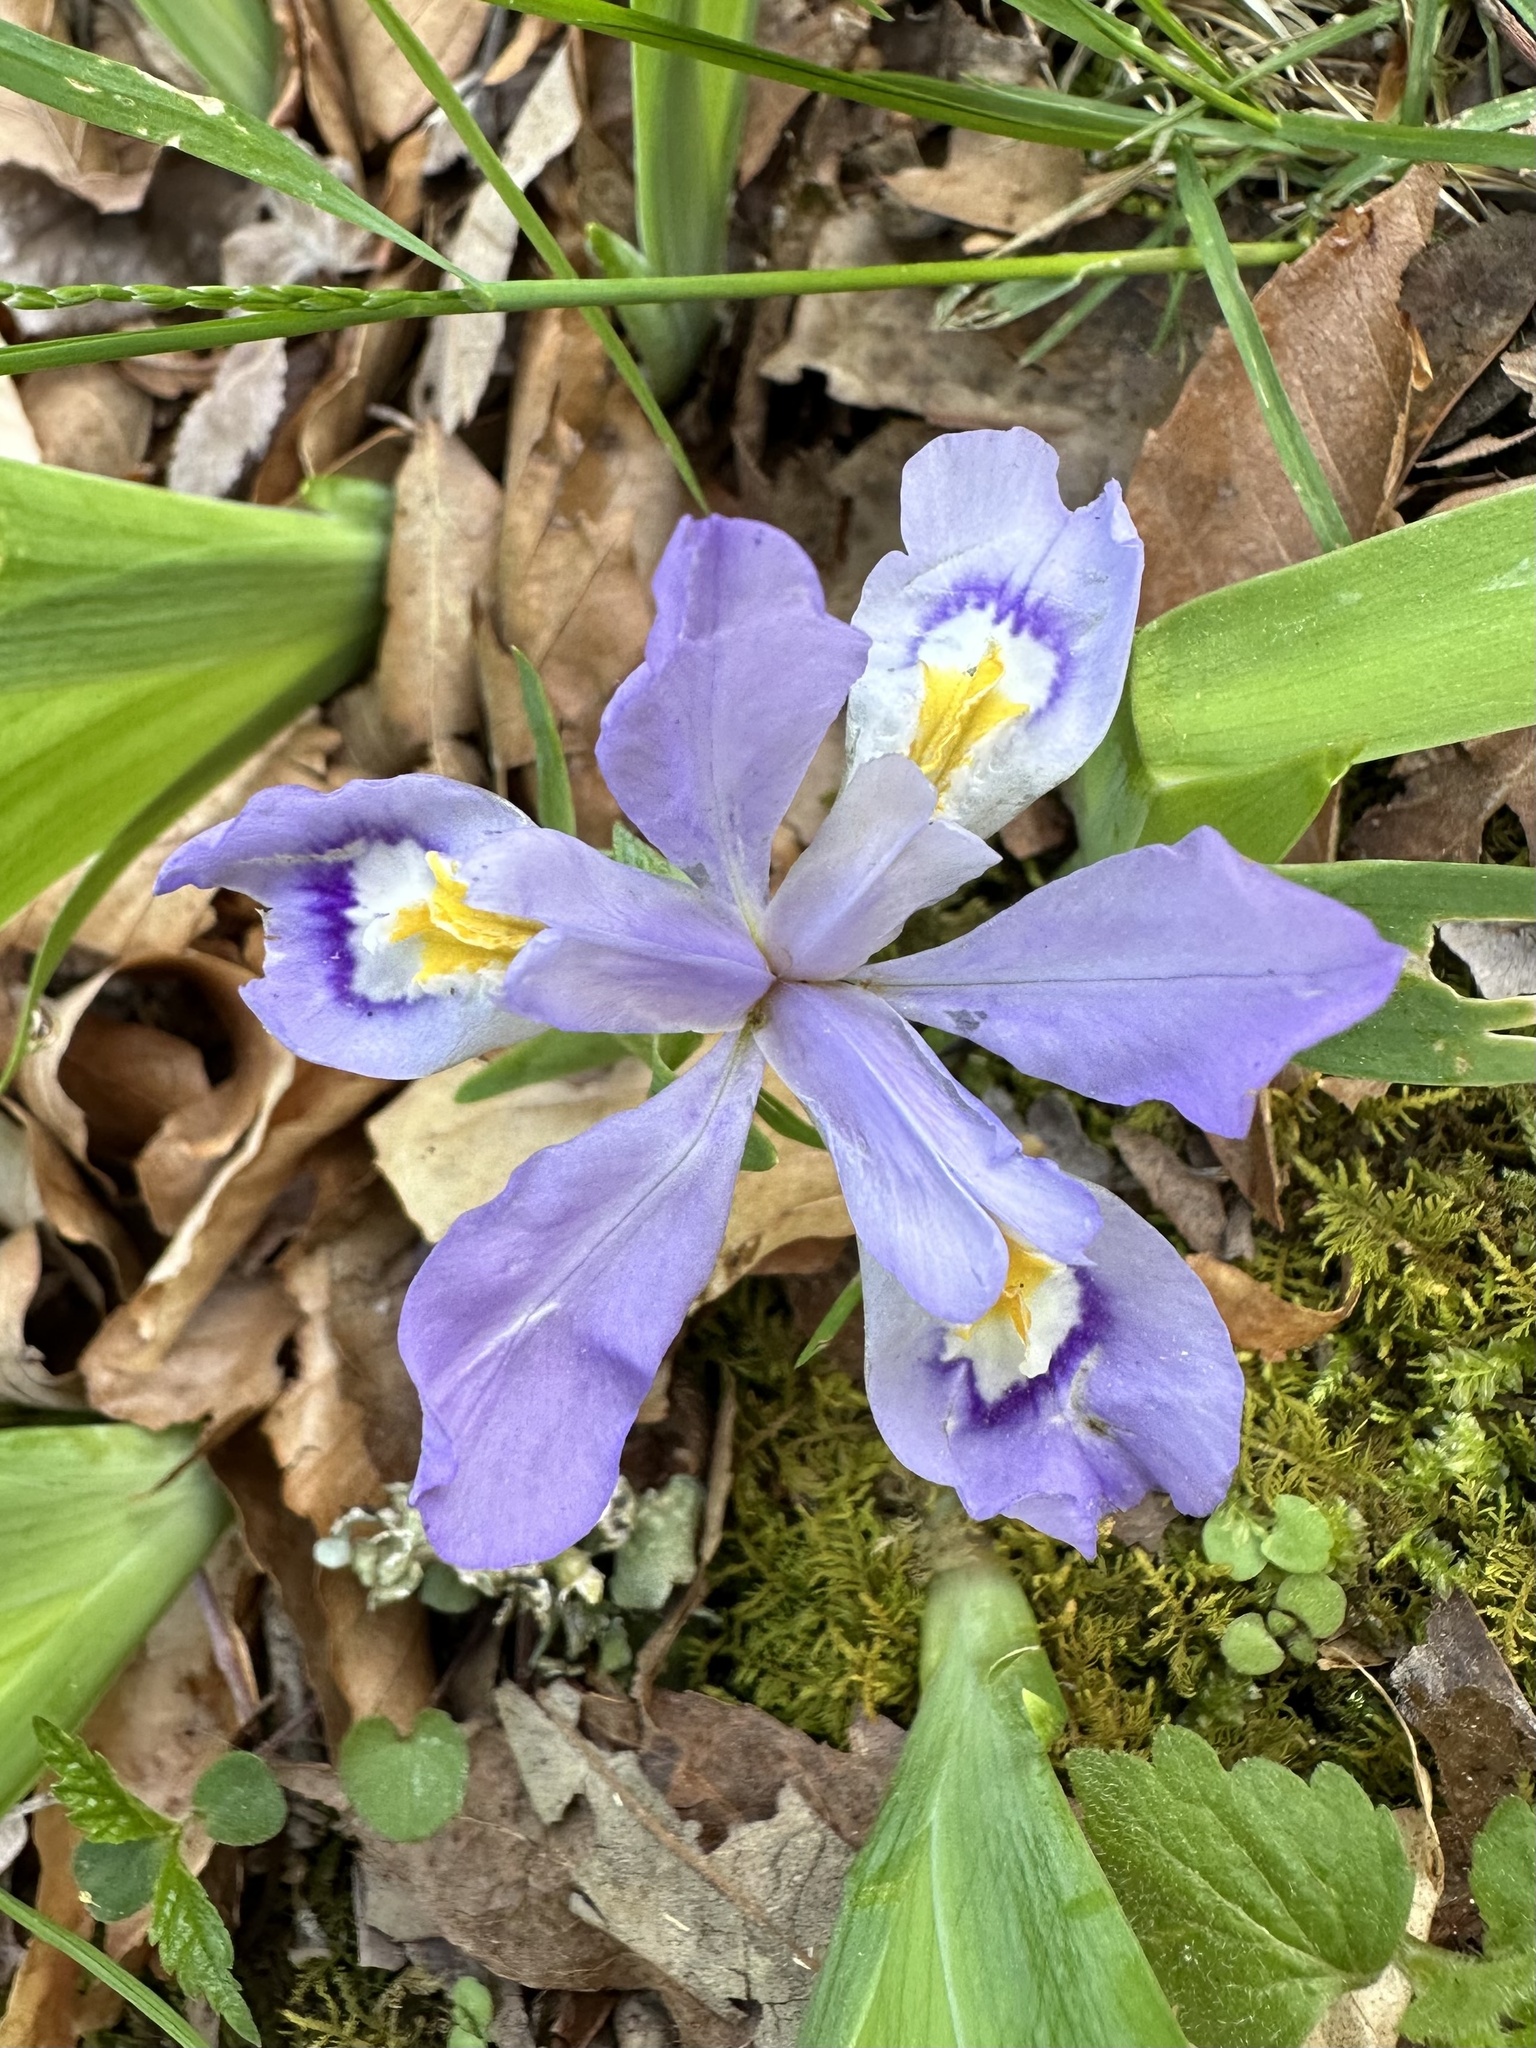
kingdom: Plantae
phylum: Tracheophyta
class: Liliopsida
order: Asparagales
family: Iridaceae
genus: Iris
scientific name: Iris cristata
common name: Crested iris
